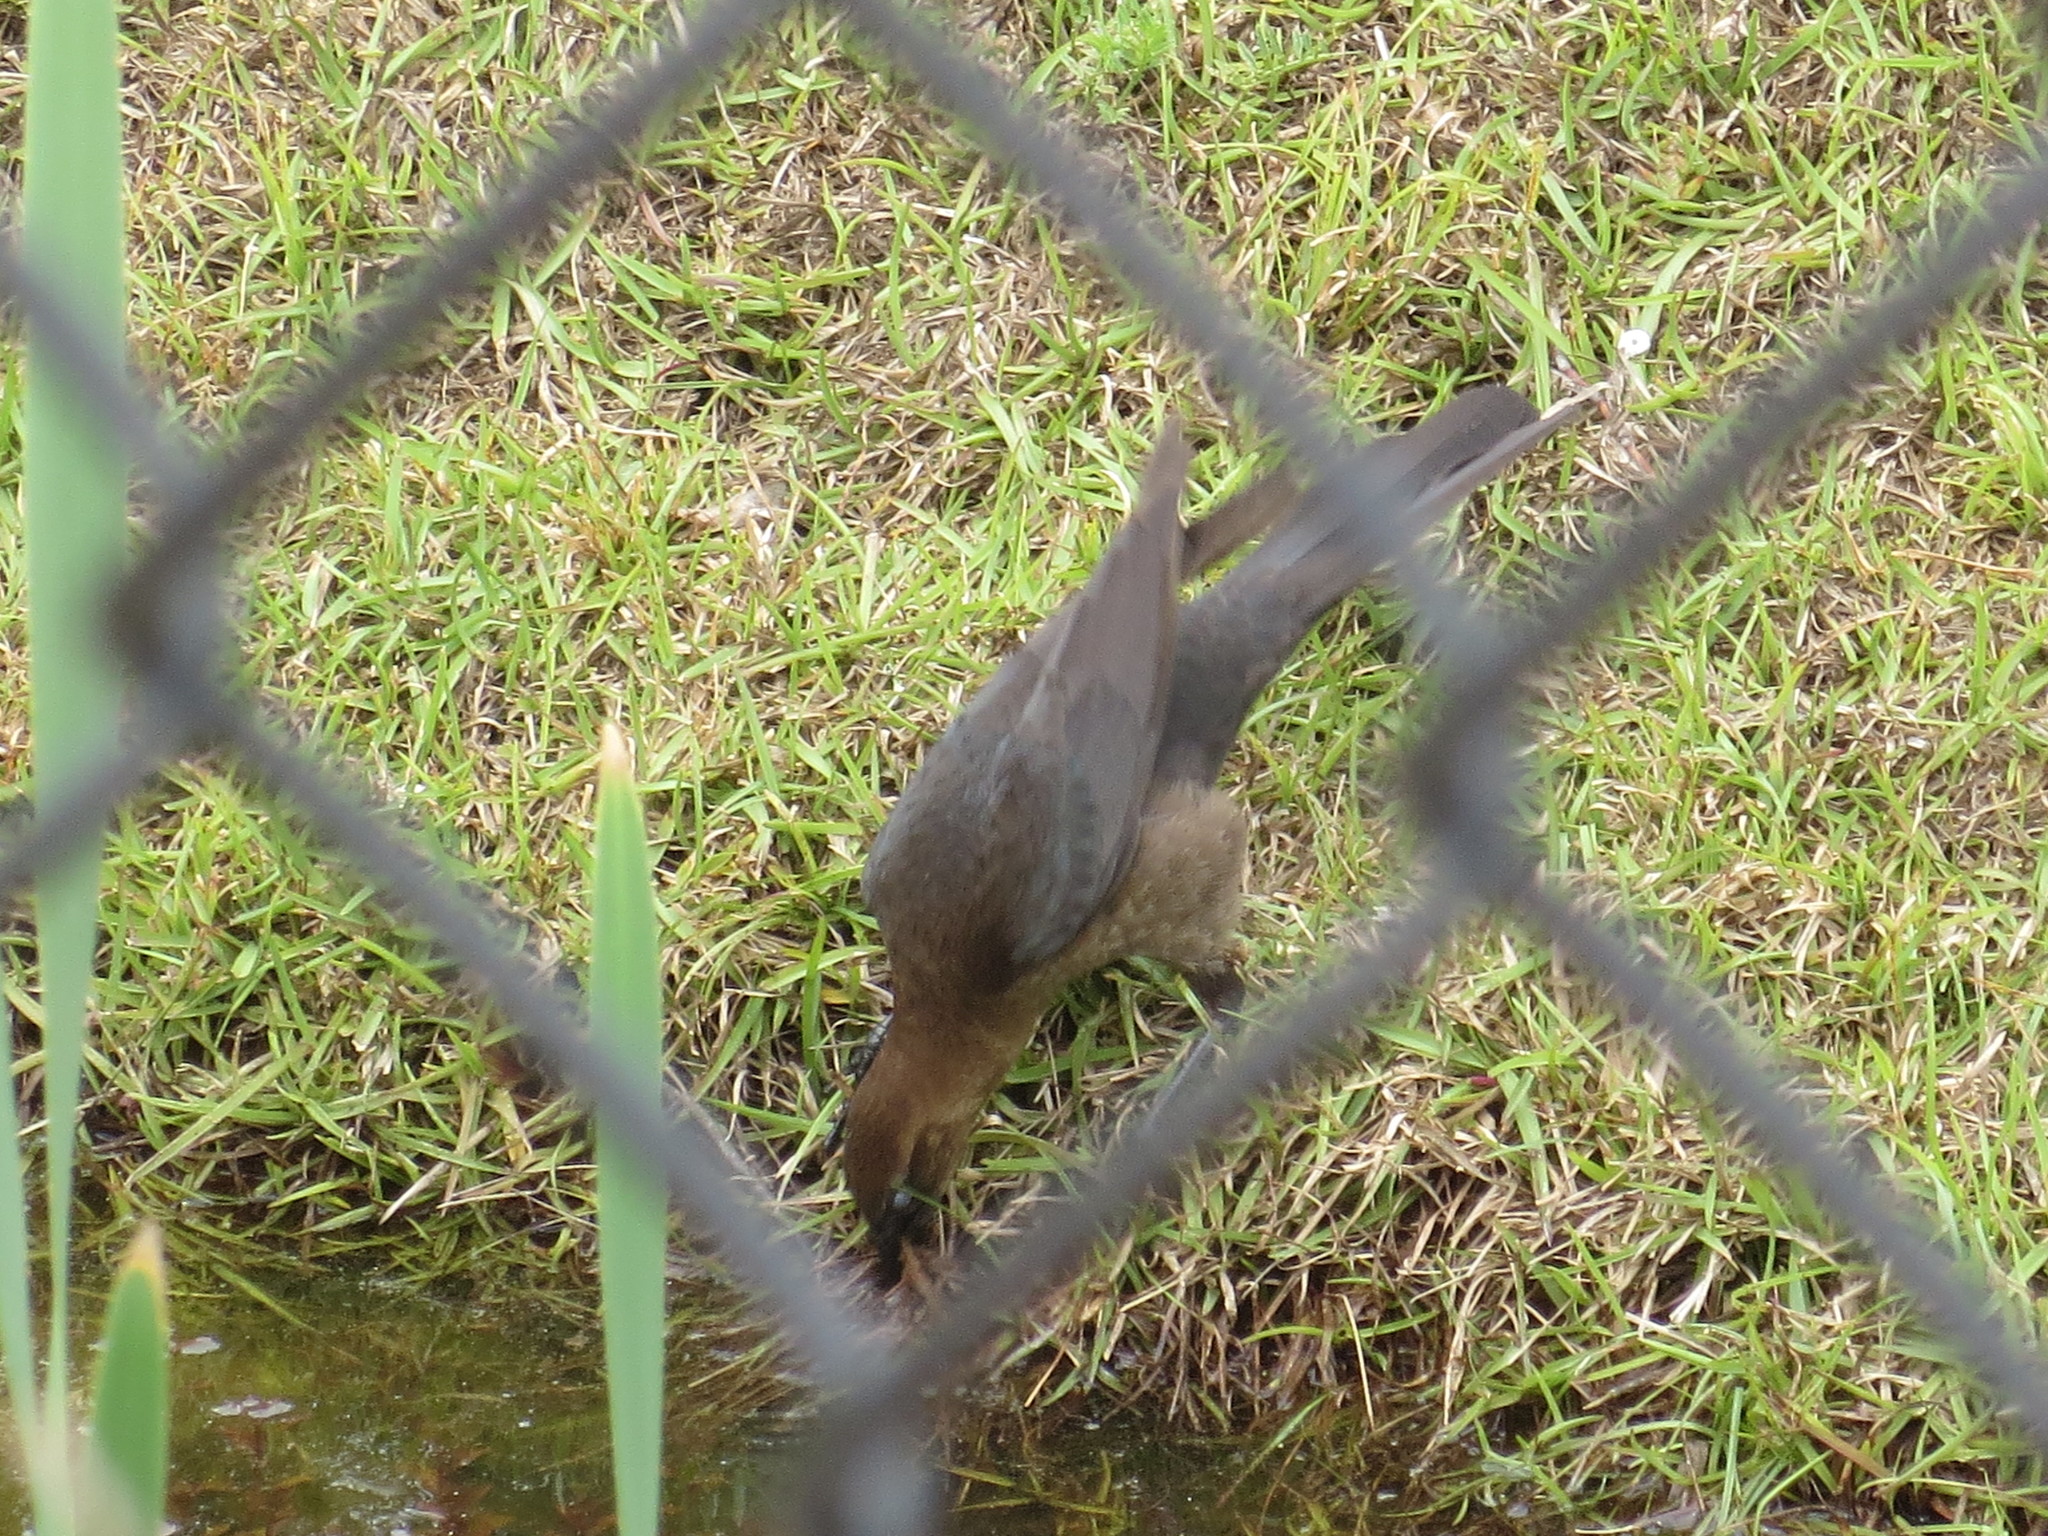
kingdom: Animalia
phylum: Chordata
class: Aves
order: Passeriformes
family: Icteridae
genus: Quiscalus
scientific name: Quiscalus major
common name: Boat-tailed grackle
